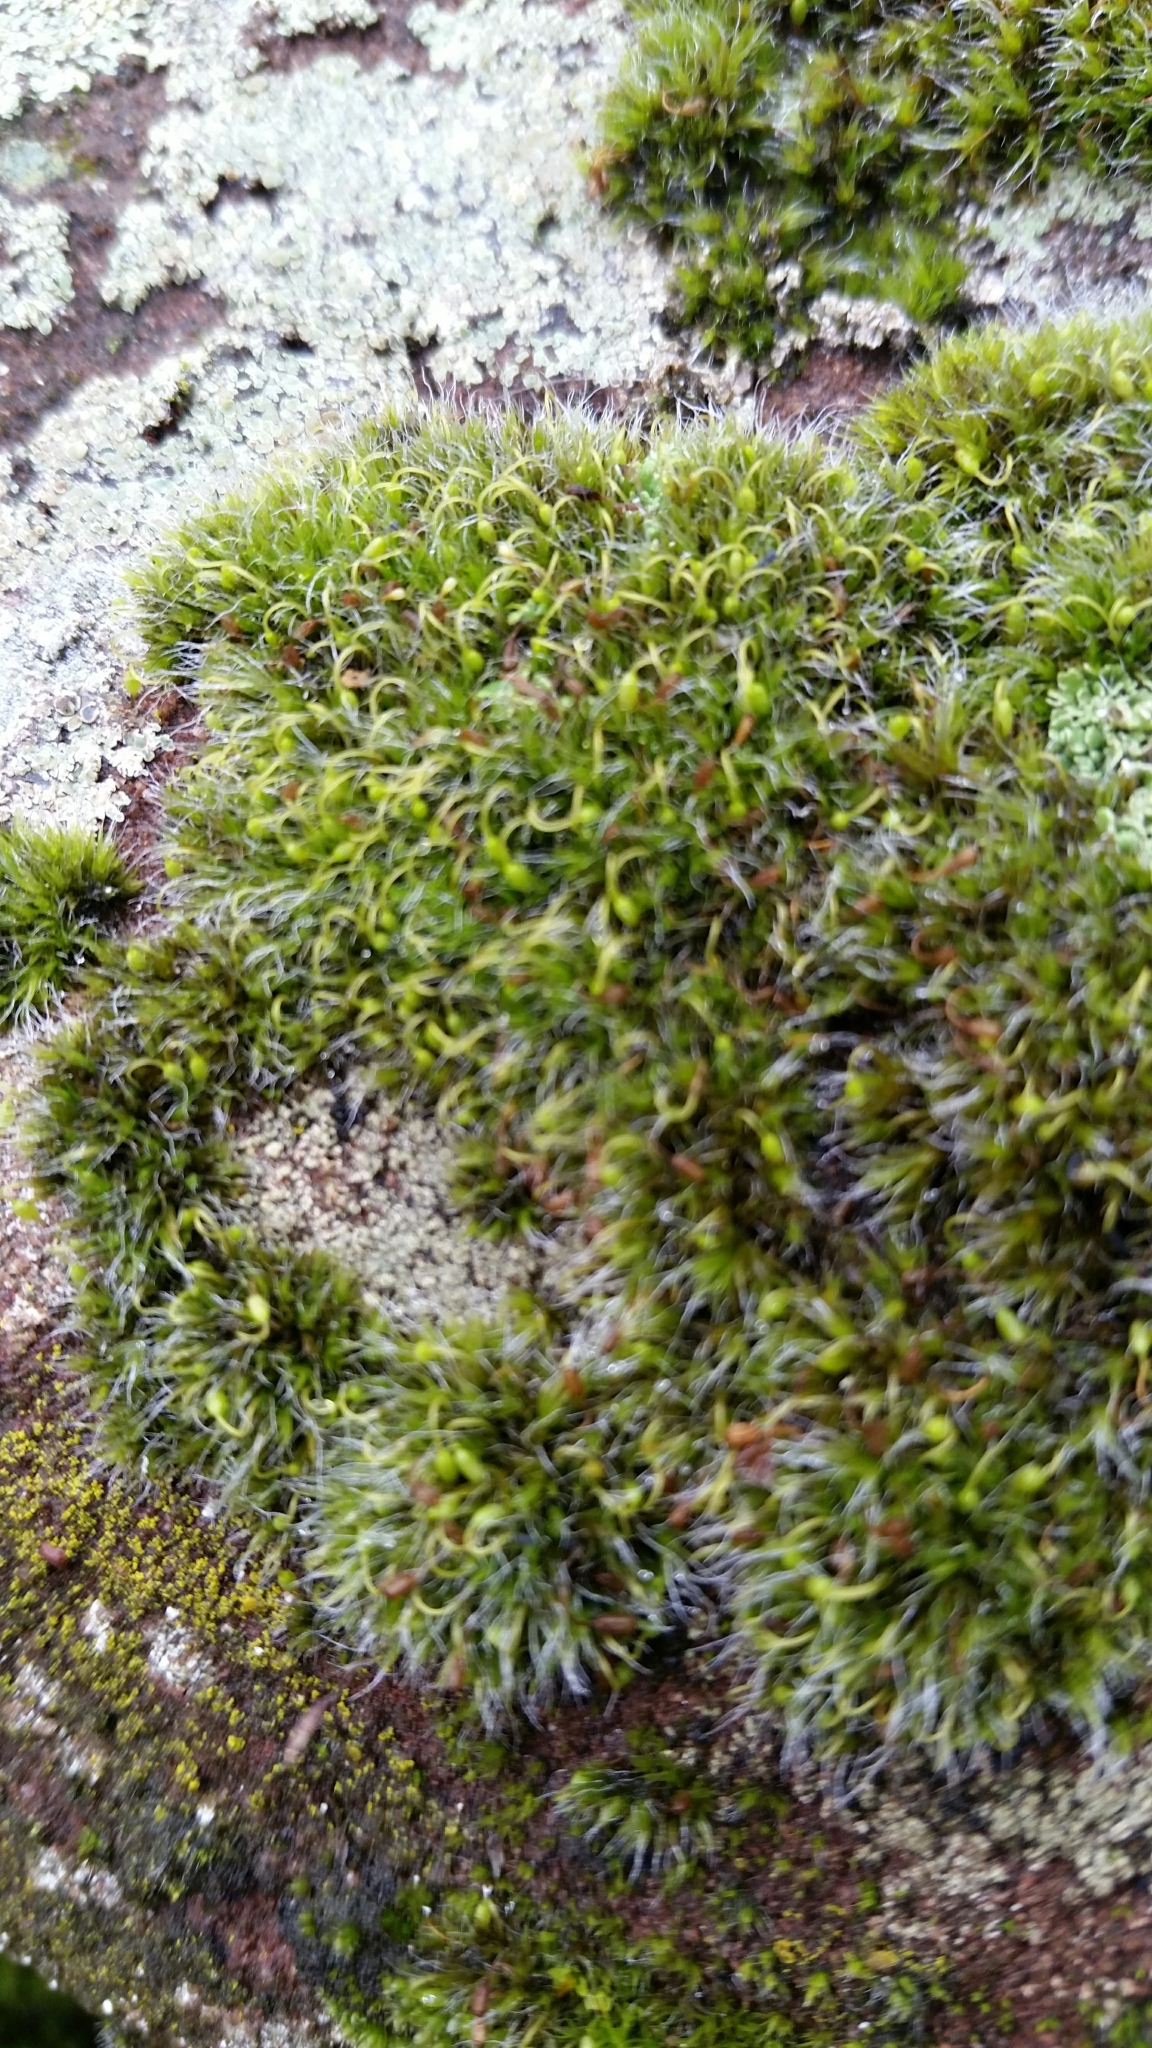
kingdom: Plantae
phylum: Bryophyta
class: Bryopsida
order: Grimmiales
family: Grimmiaceae
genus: Grimmia
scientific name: Grimmia pulvinata
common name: Grey-cushioned grimmia
